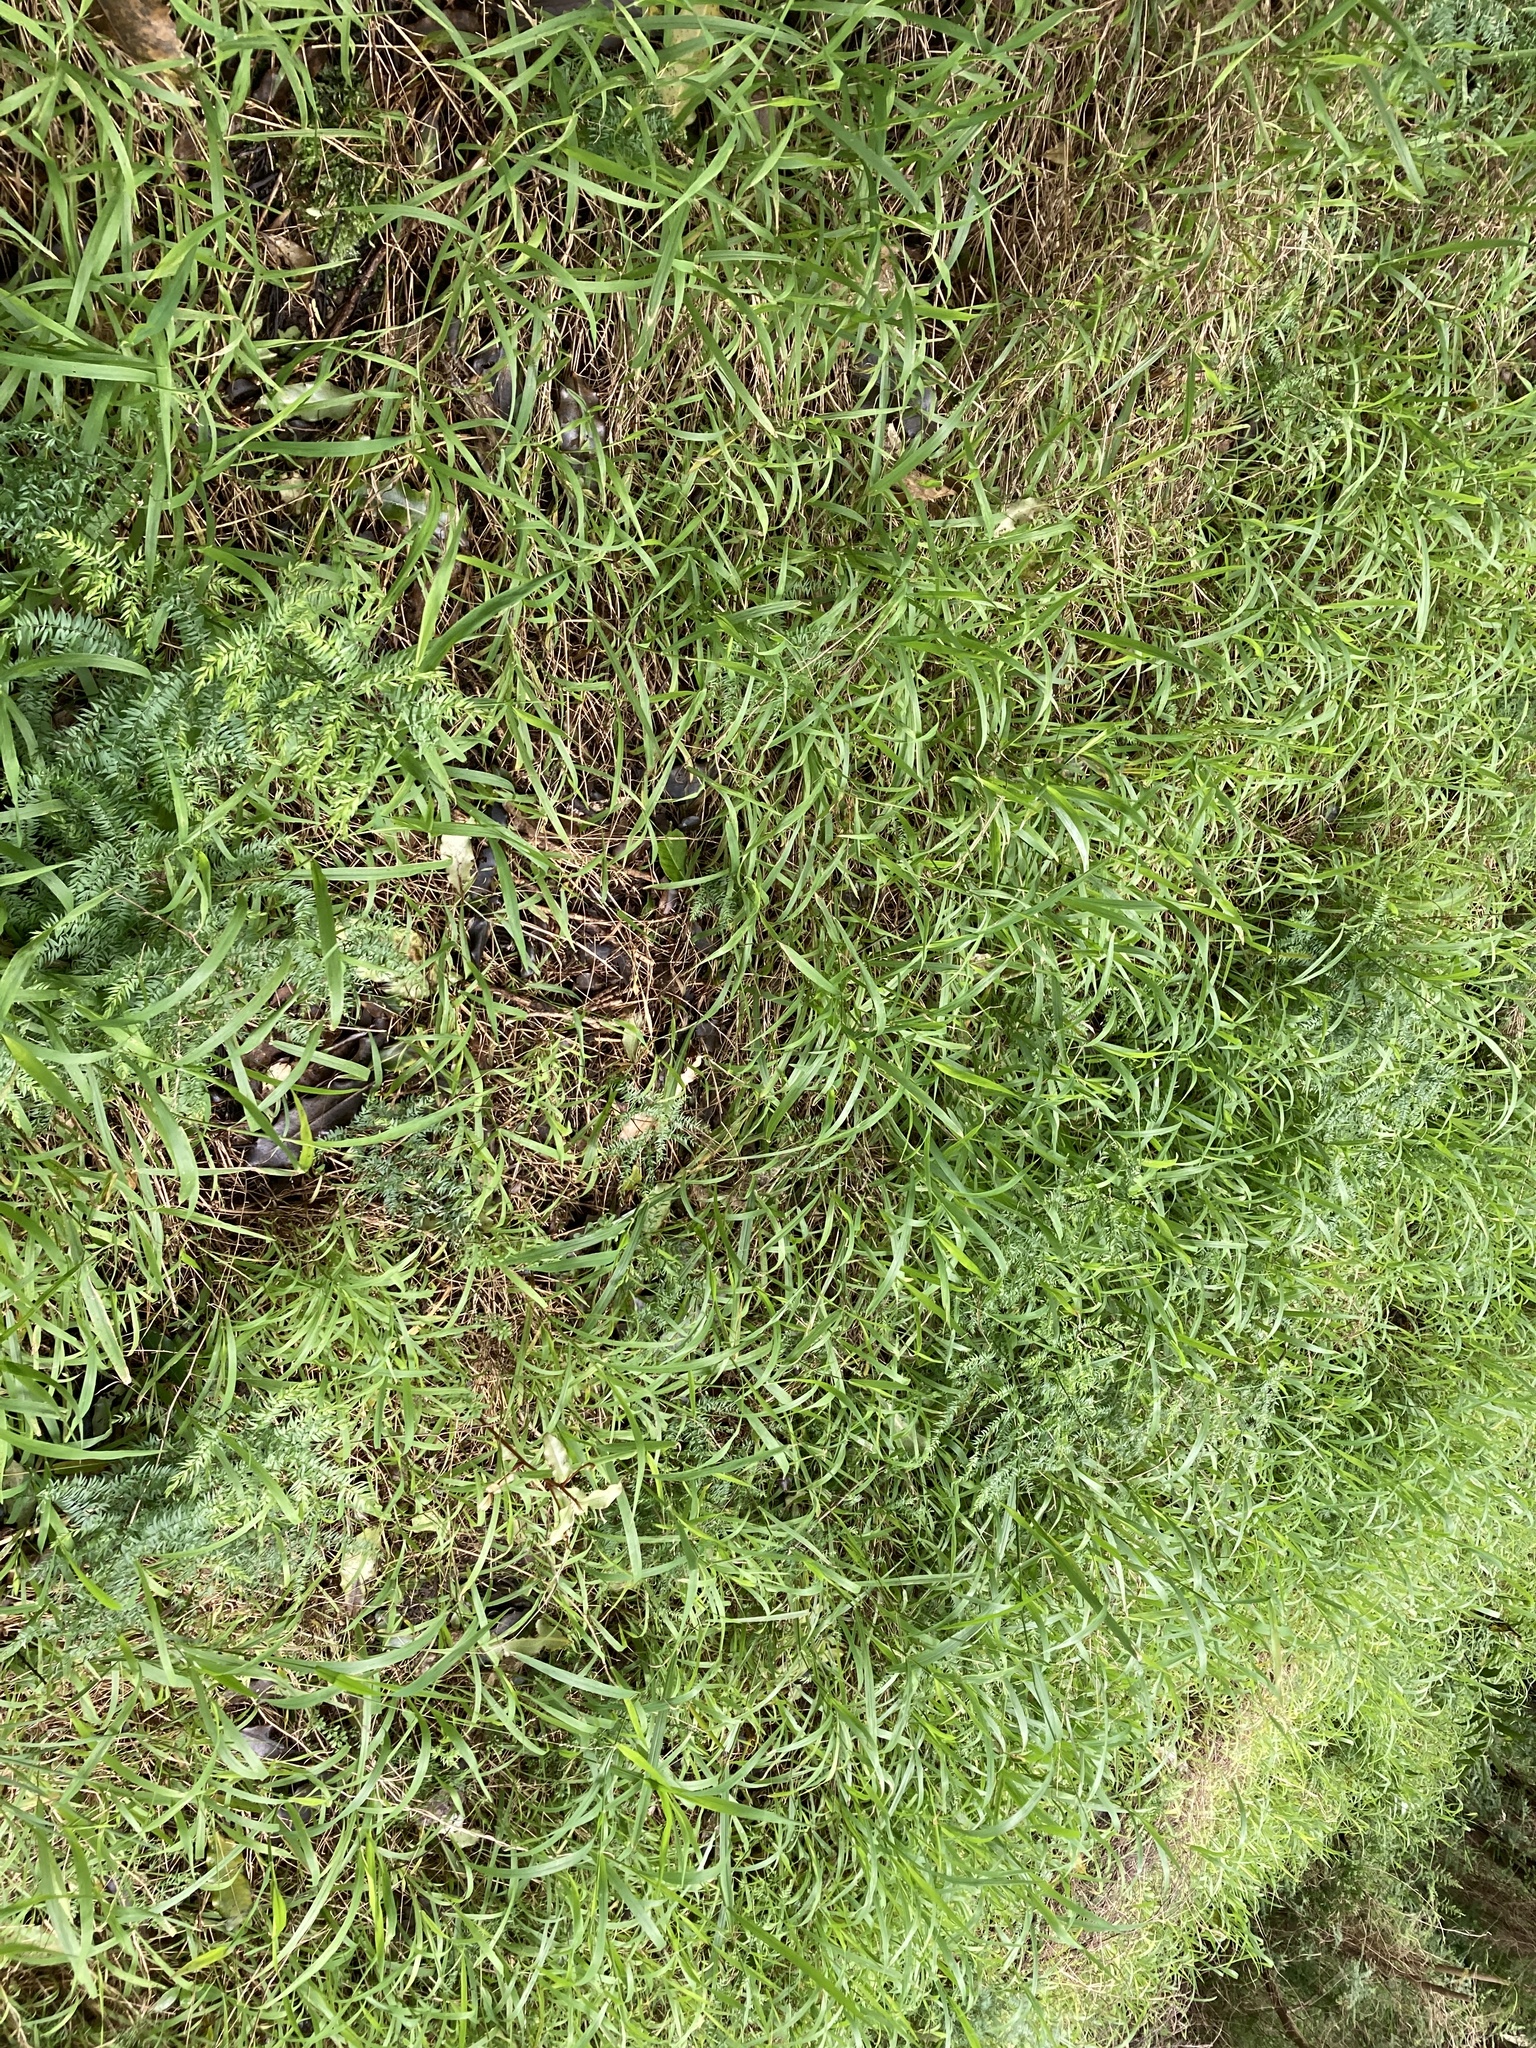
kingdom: Plantae
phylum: Tracheophyta
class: Liliopsida
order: Asparagales
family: Asparagaceae
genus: Asparagus
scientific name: Asparagus scandens
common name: Asparagus-fern
